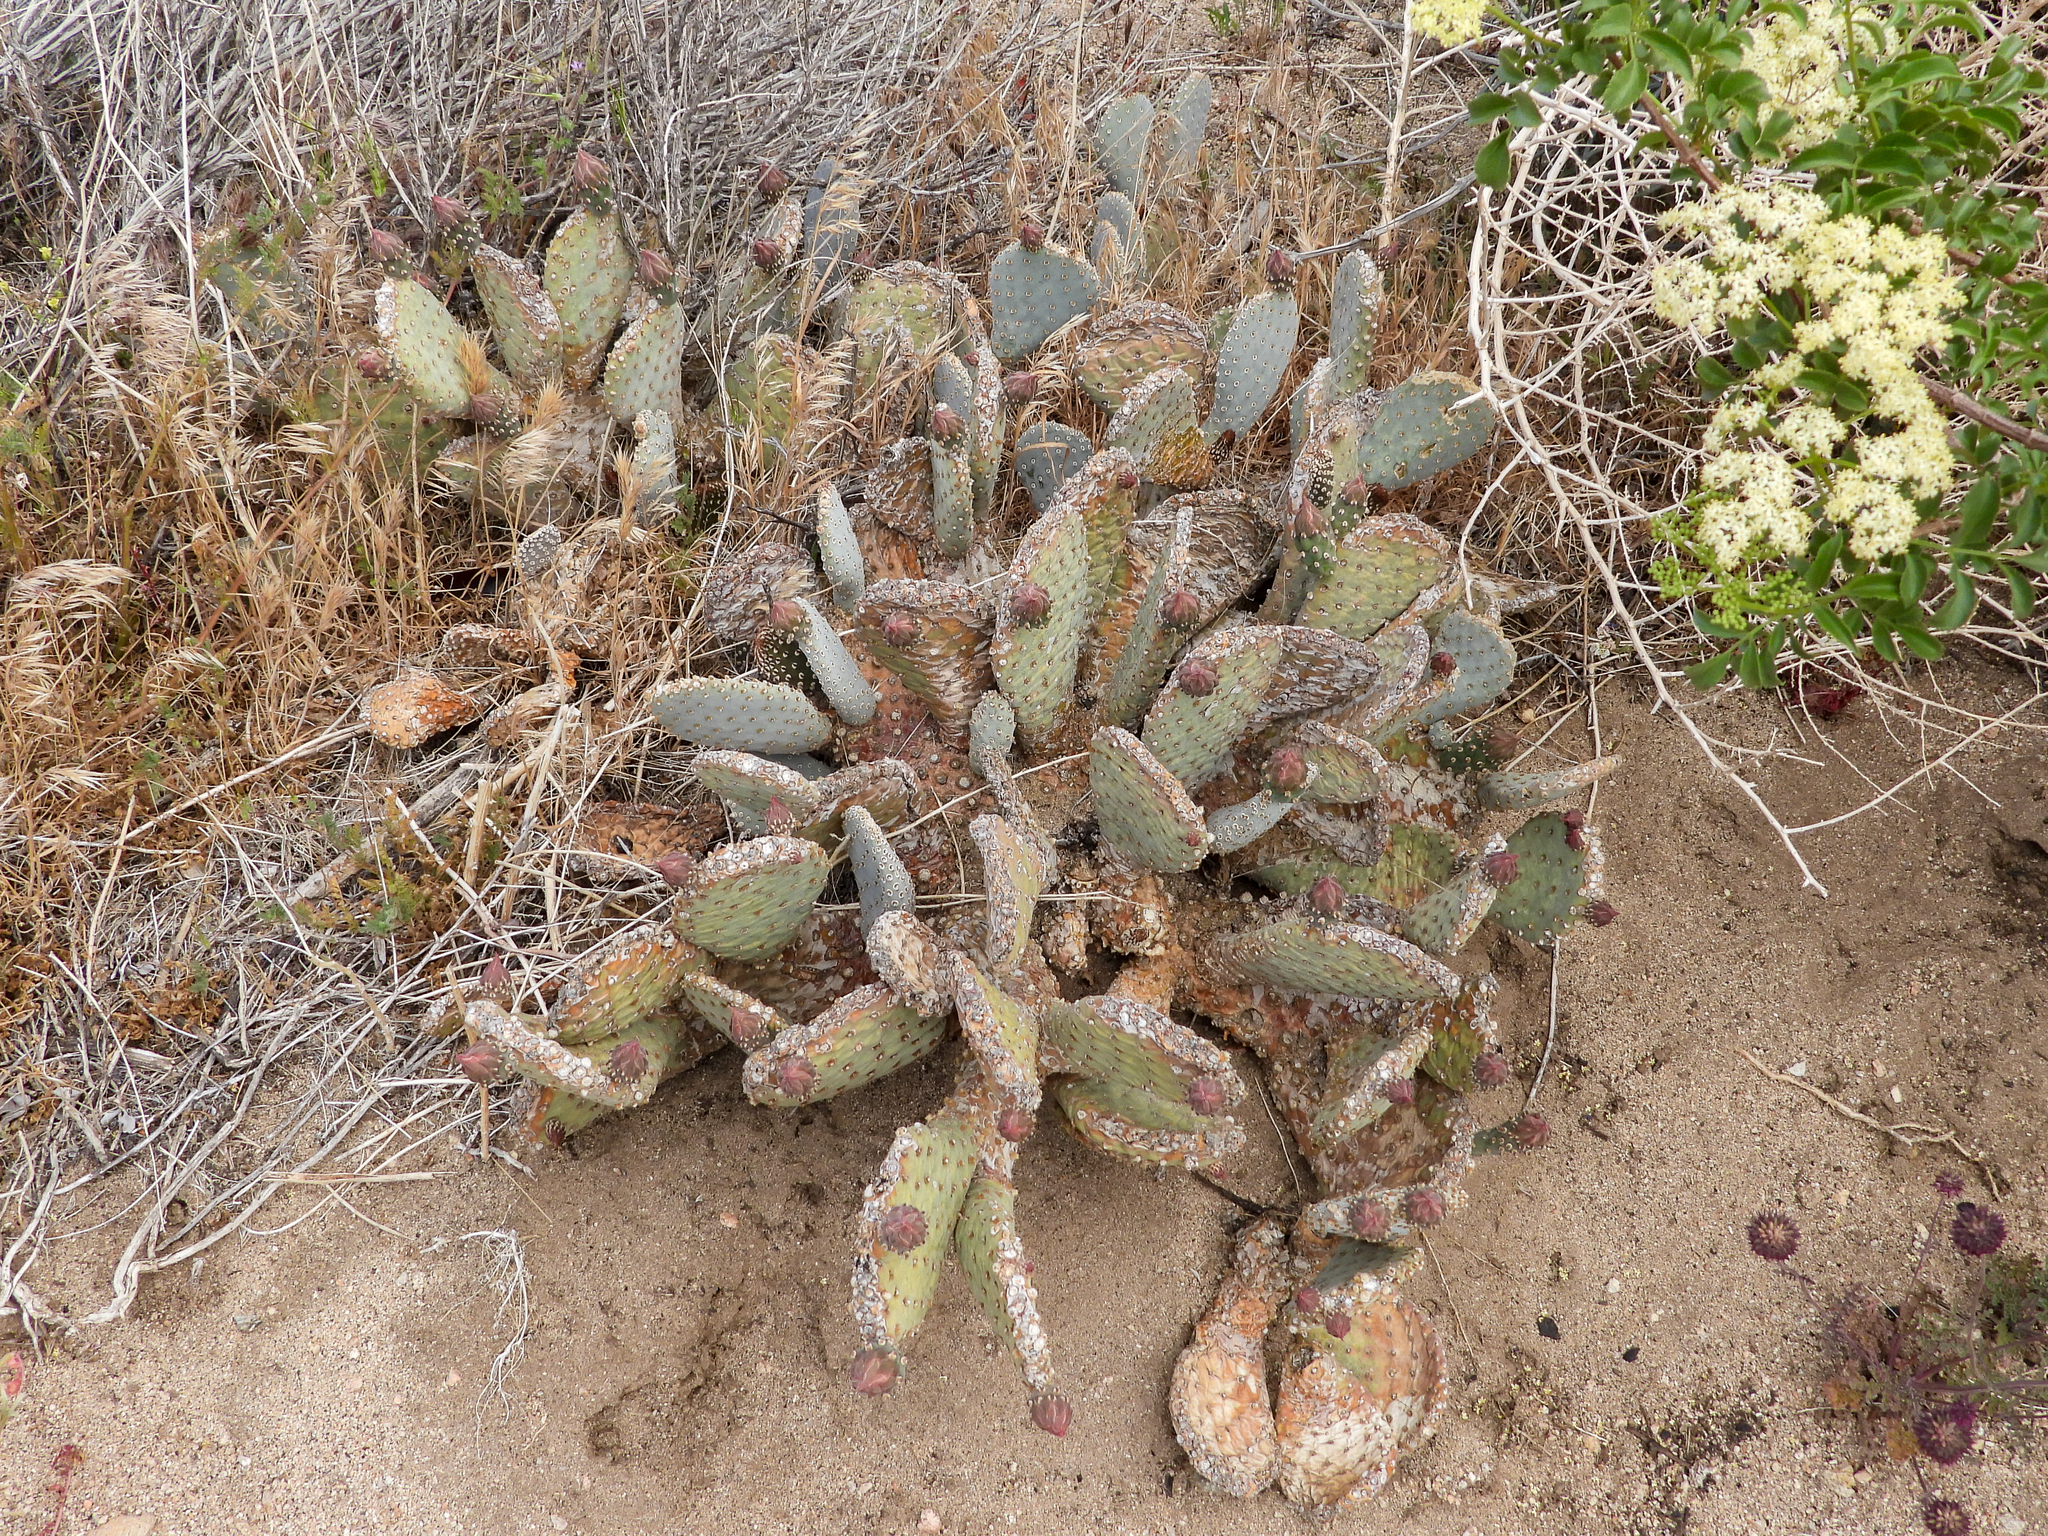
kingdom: Plantae
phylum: Tracheophyta
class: Magnoliopsida
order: Caryophyllales
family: Cactaceae
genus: Opuntia
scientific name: Opuntia basilaris
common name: Beavertail prickly-pear
